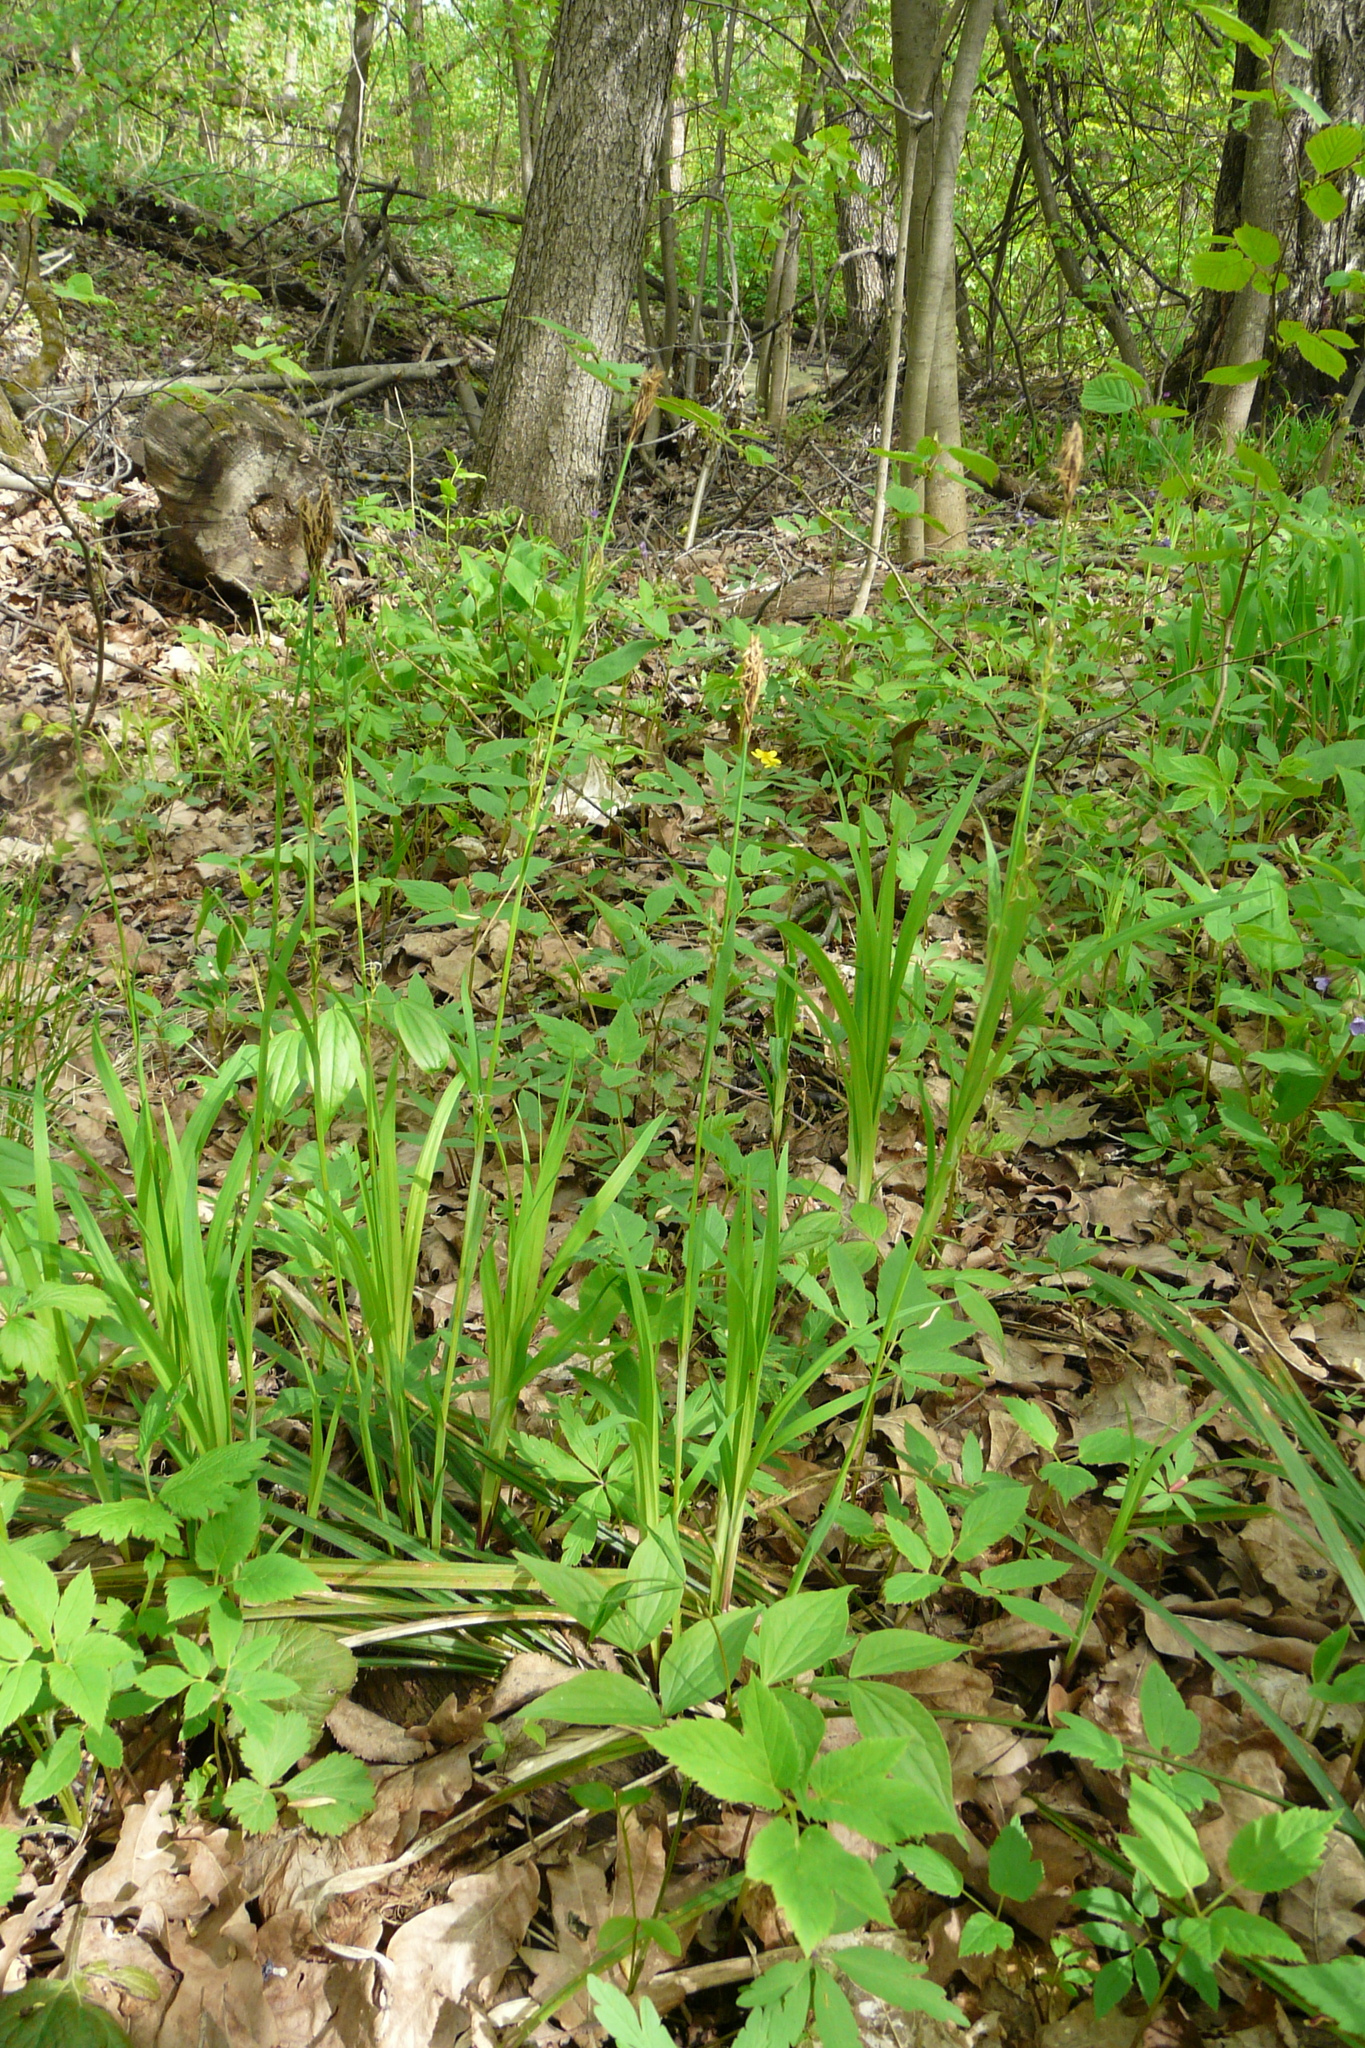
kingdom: Plantae
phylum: Tracheophyta
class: Liliopsida
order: Poales
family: Cyperaceae
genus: Carex
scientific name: Carex pilosa
